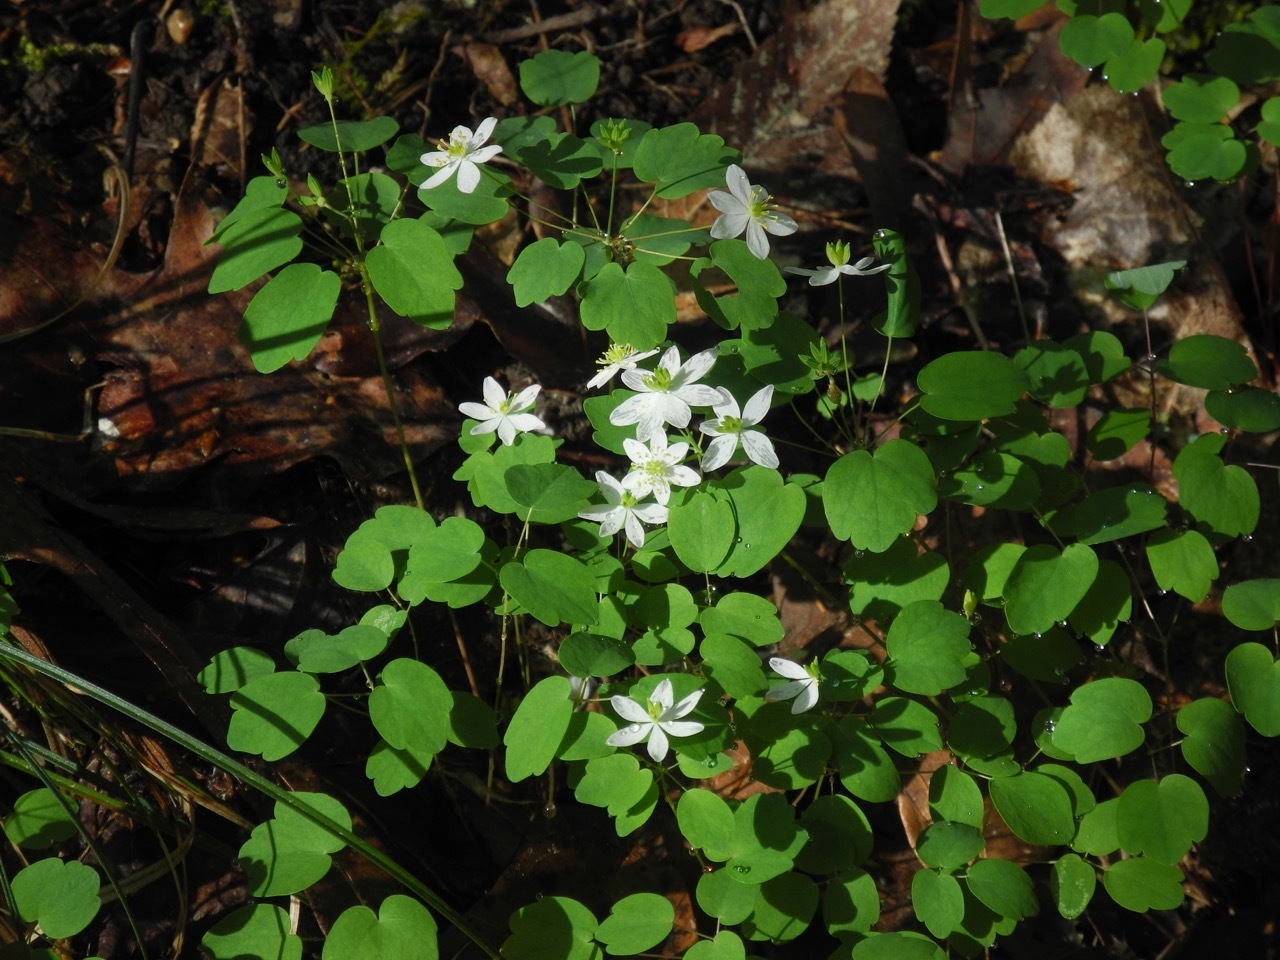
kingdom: Plantae
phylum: Tracheophyta
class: Magnoliopsida
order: Ranunculales
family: Ranunculaceae
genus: Thalictrum
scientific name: Thalictrum thalictroides
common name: Rue-anemone
